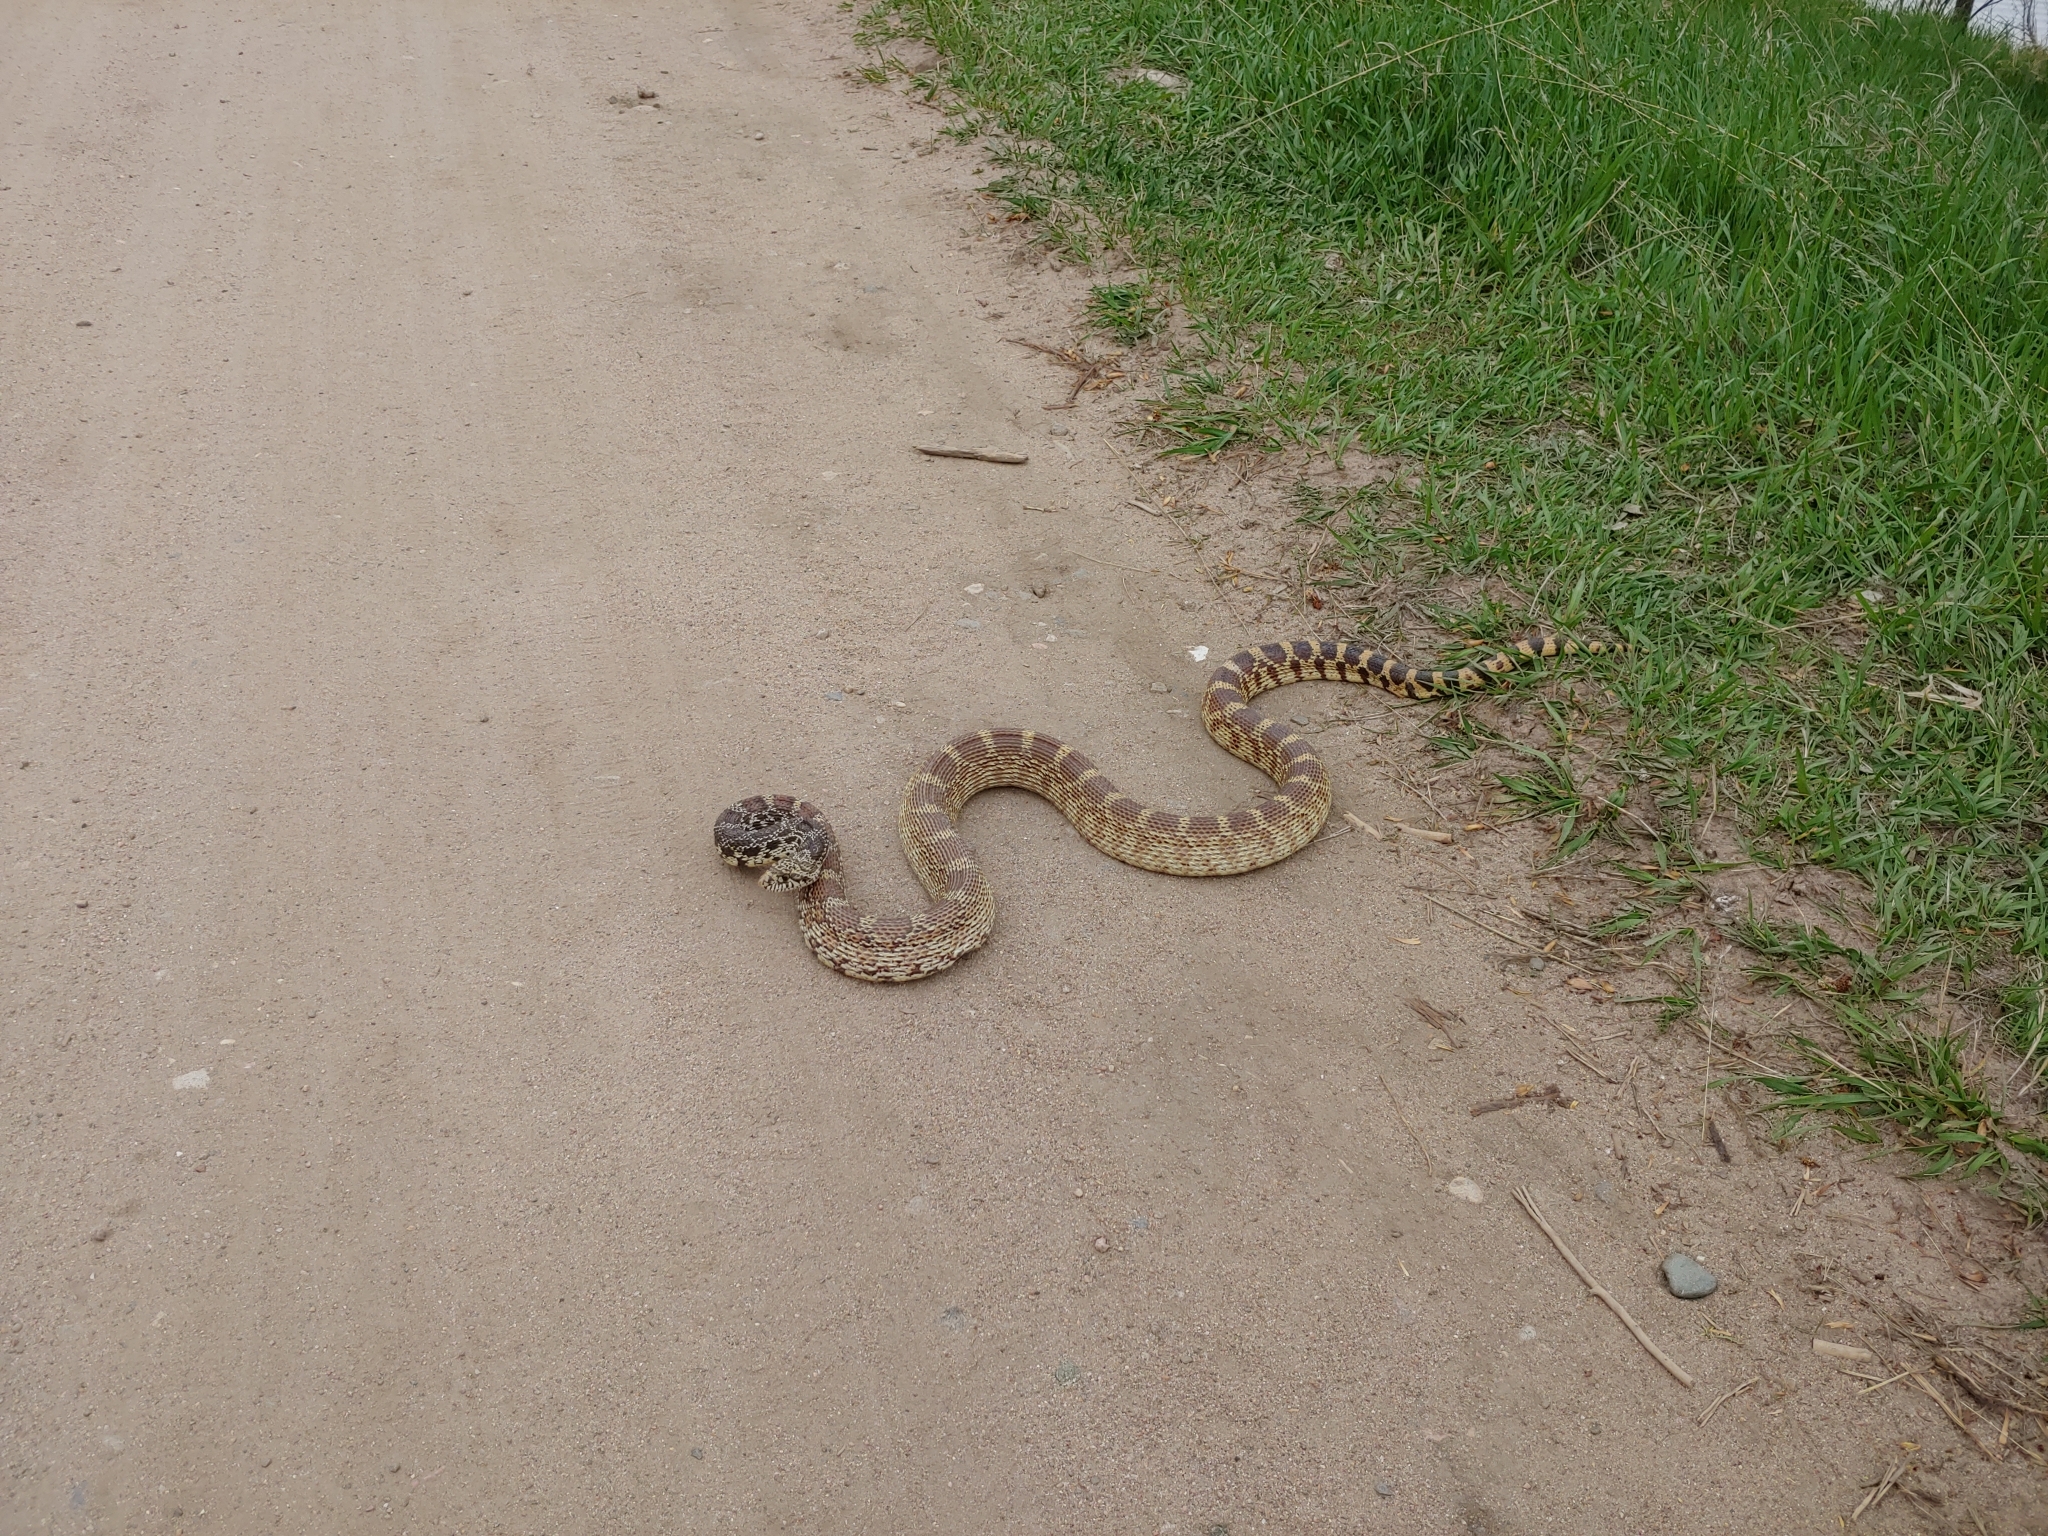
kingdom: Animalia
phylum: Chordata
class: Squamata
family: Colubridae
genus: Pituophis
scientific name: Pituophis catenifer
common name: Gopher snake
